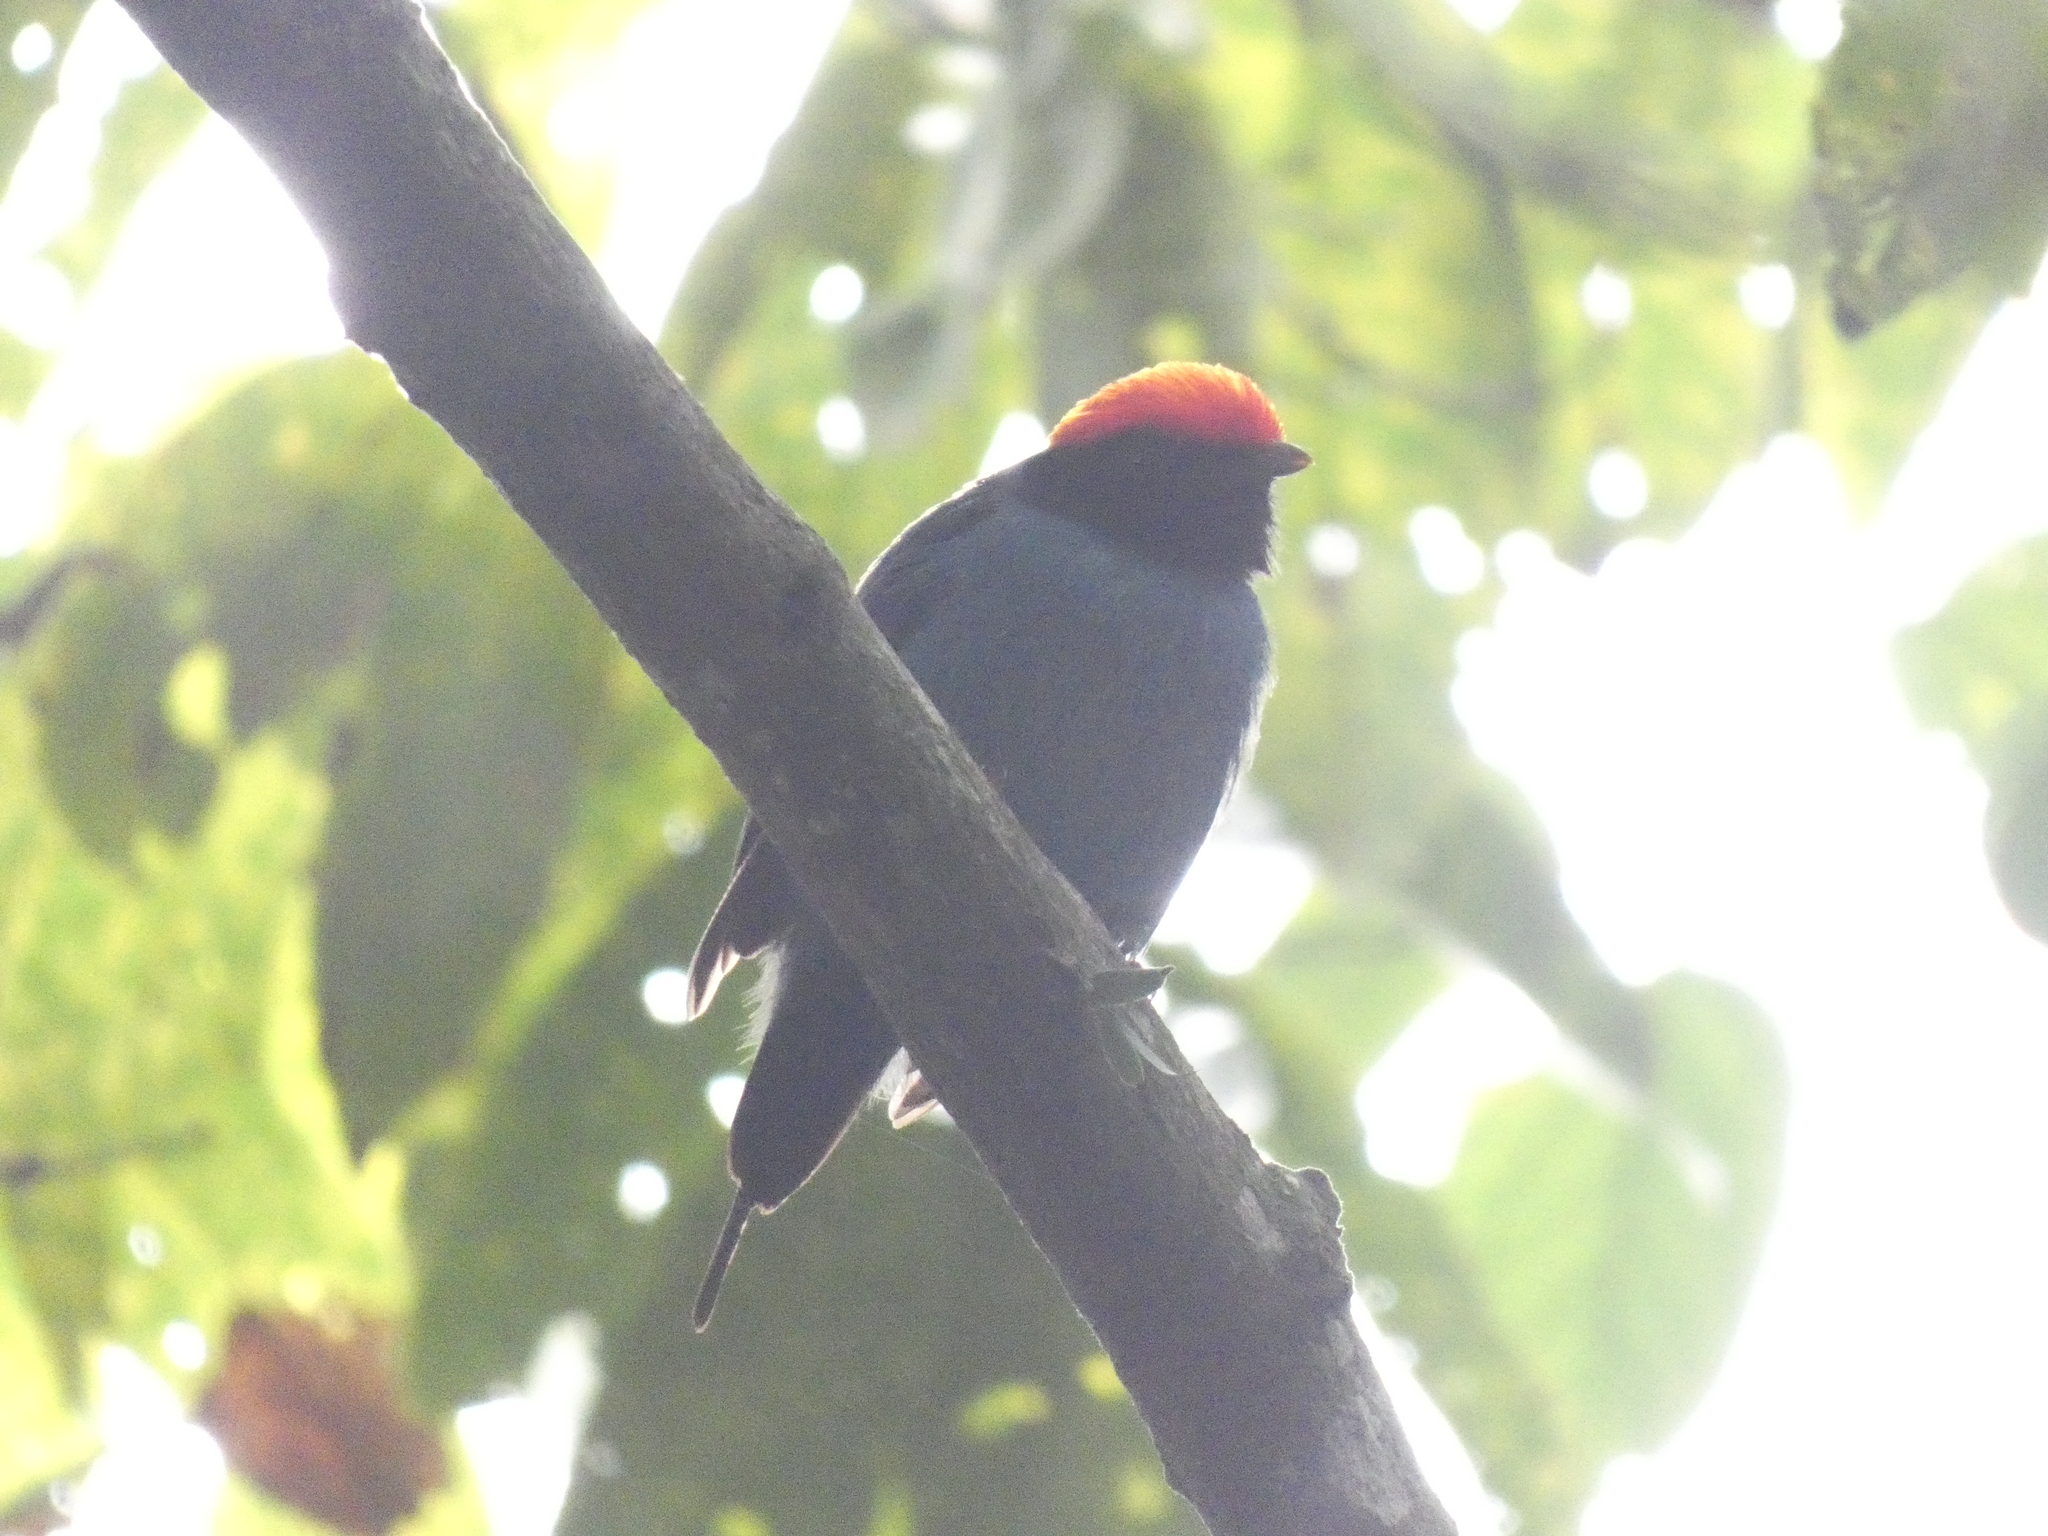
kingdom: Animalia
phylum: Chordata
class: Aves
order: Passeriformes
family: Pipridae
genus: Chiroxiphia
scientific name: Chiroxiphia caudata
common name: Blue manakin
